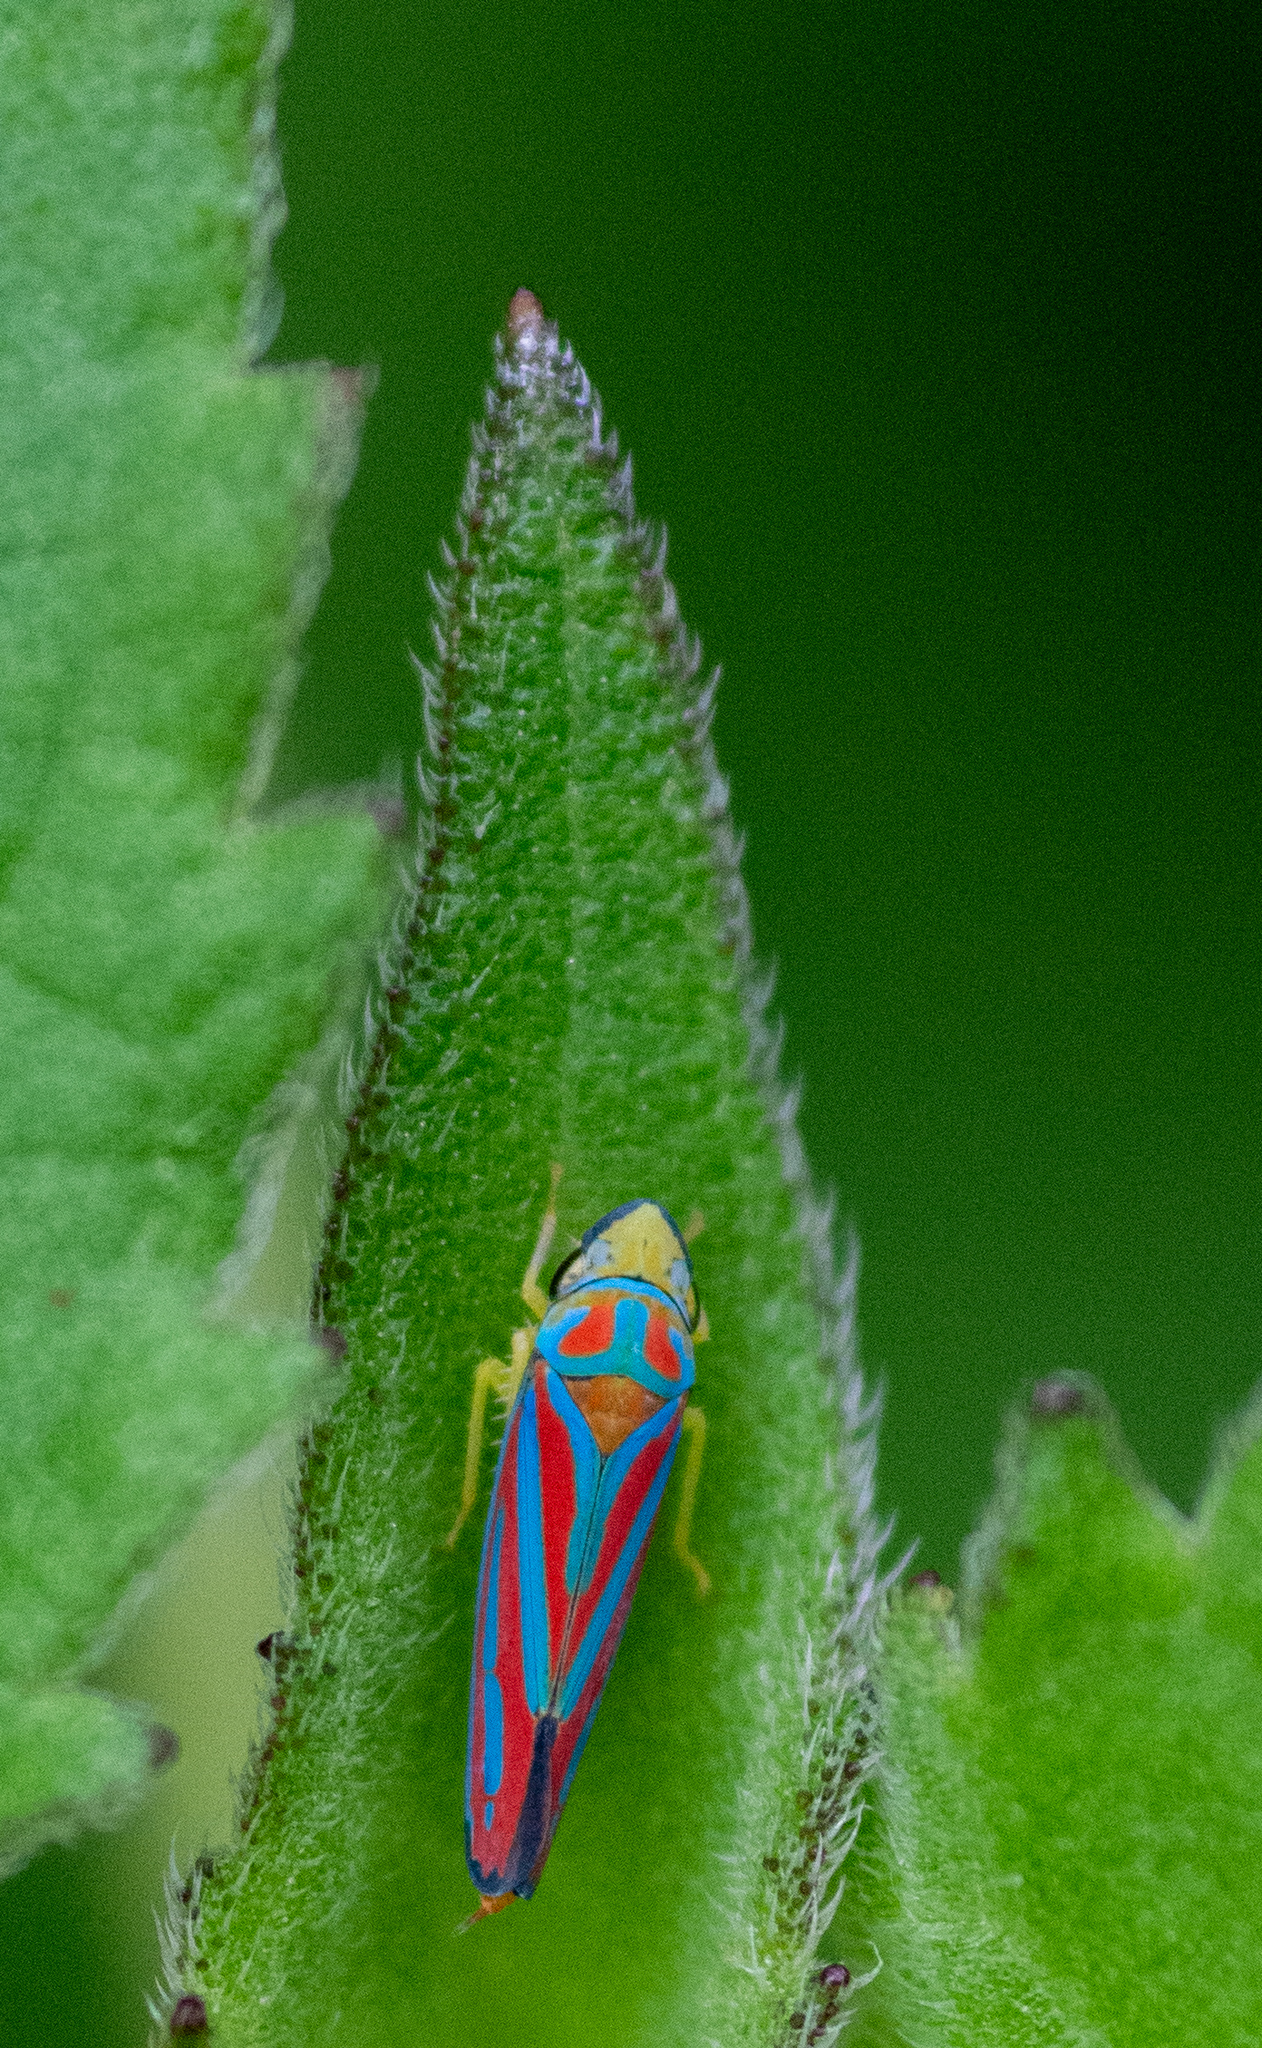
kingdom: Animalia
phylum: Arthropoda
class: Insecta
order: Hemiptera
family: Cicadellidae
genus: Graphocephala
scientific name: Graphocephala coccinea
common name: Candy-striped leafhopper
